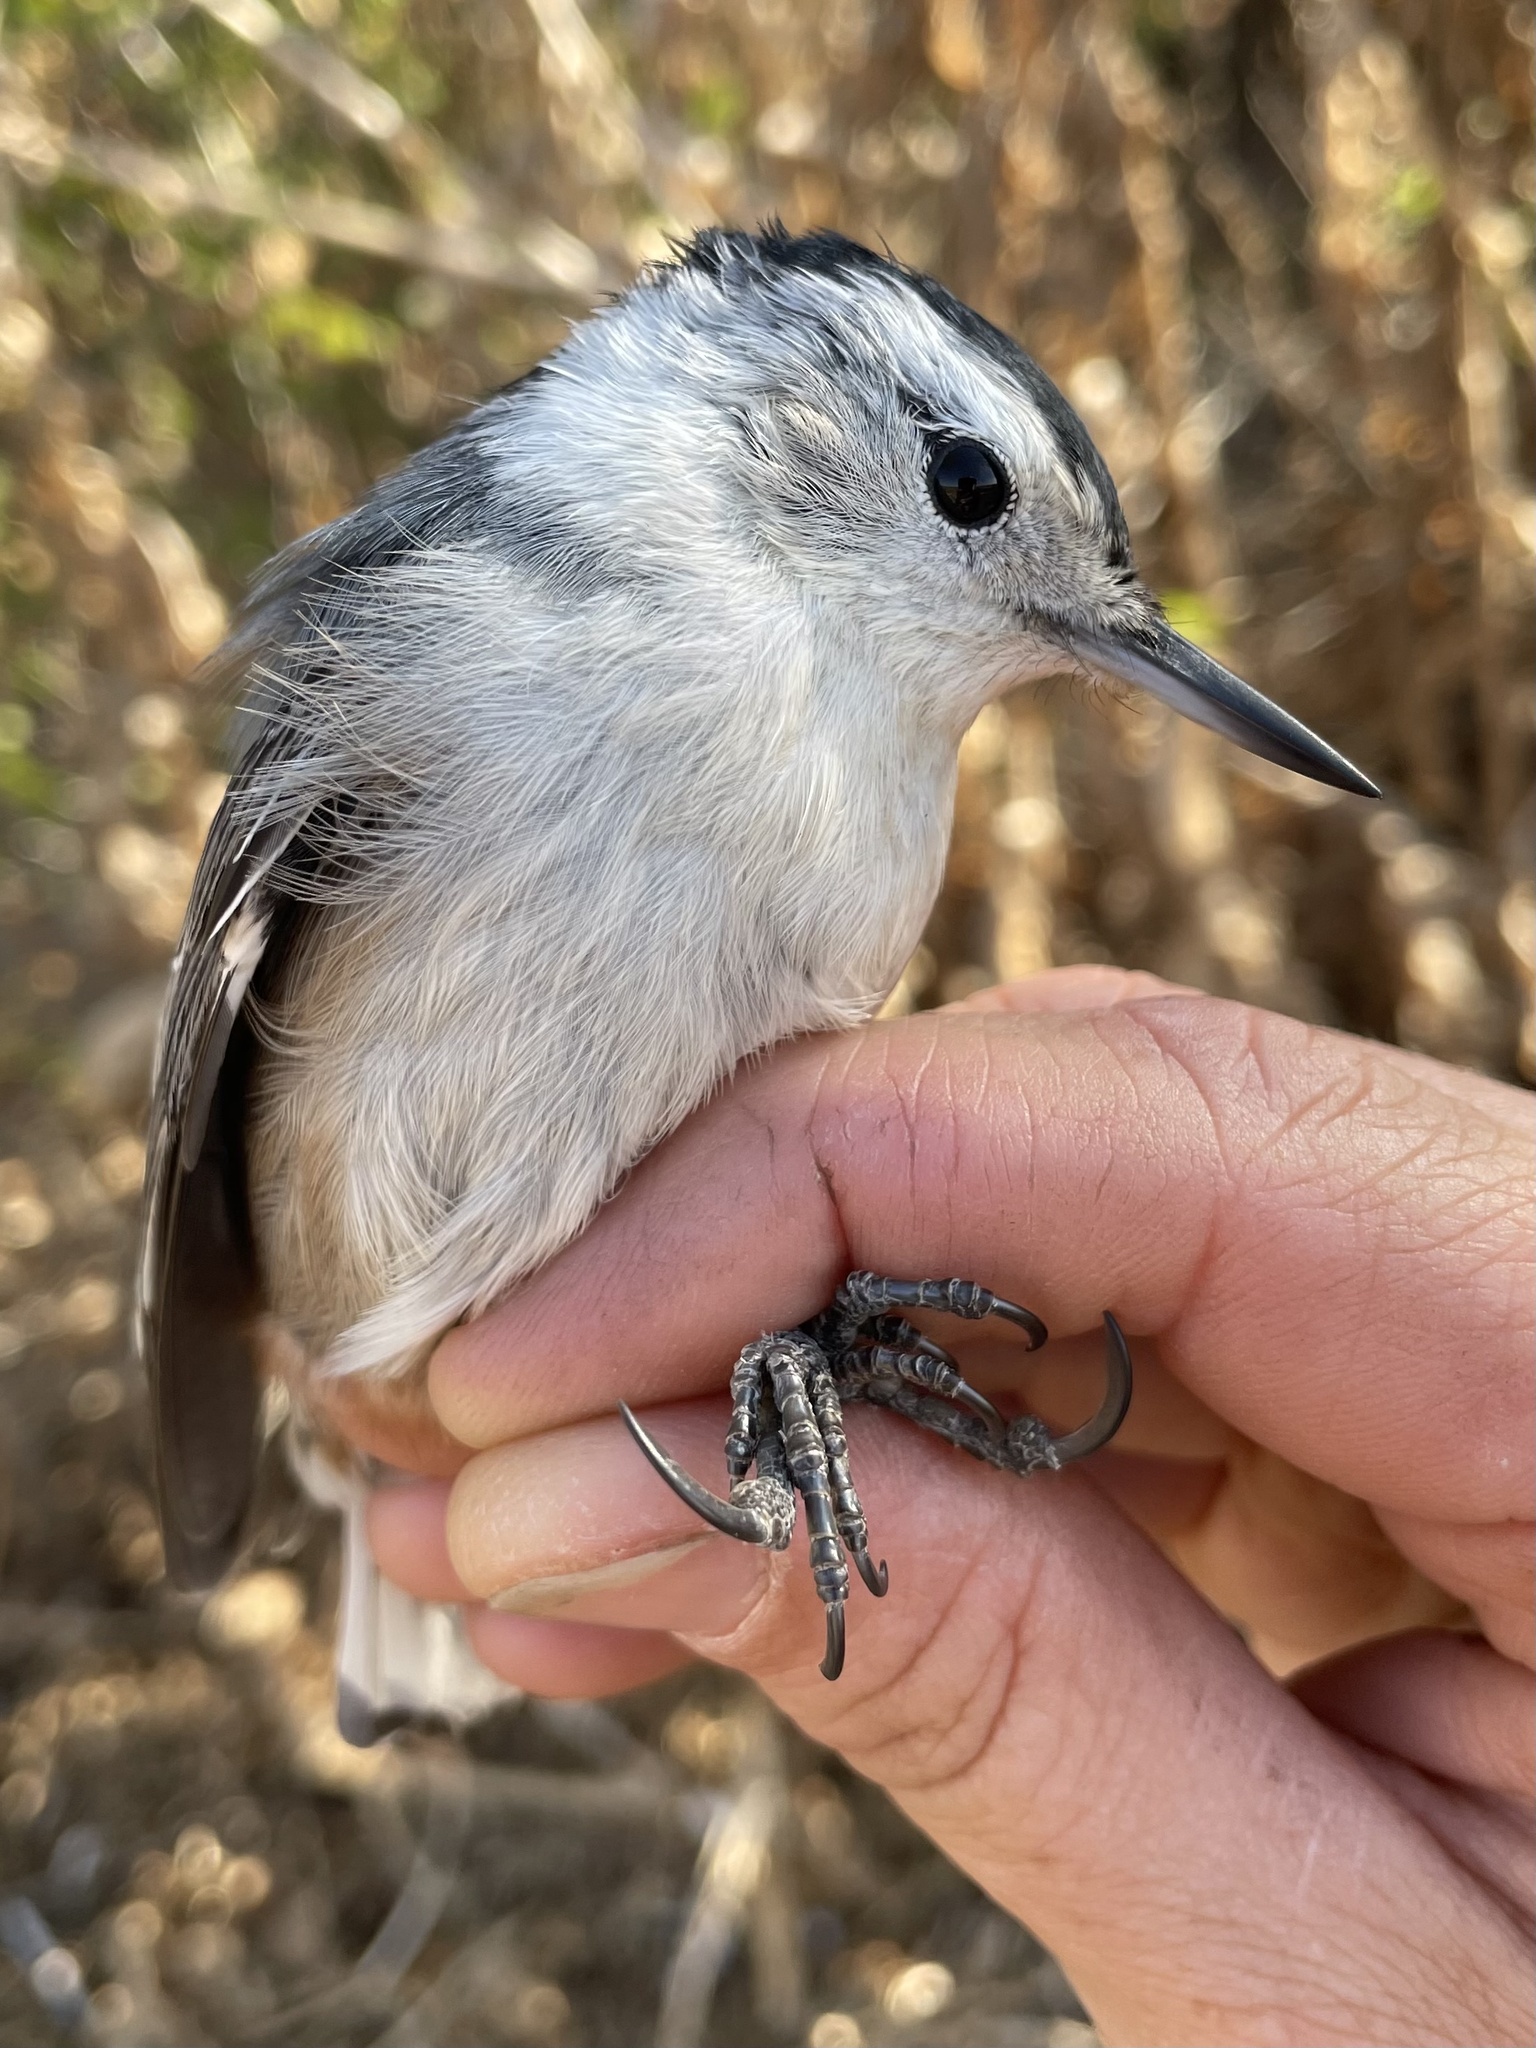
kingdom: Animalia
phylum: Chordata
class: Aves
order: Passeriformes
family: Sittidae
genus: Sitta
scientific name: Sitta carolinensis
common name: White-breasted nuthatch
